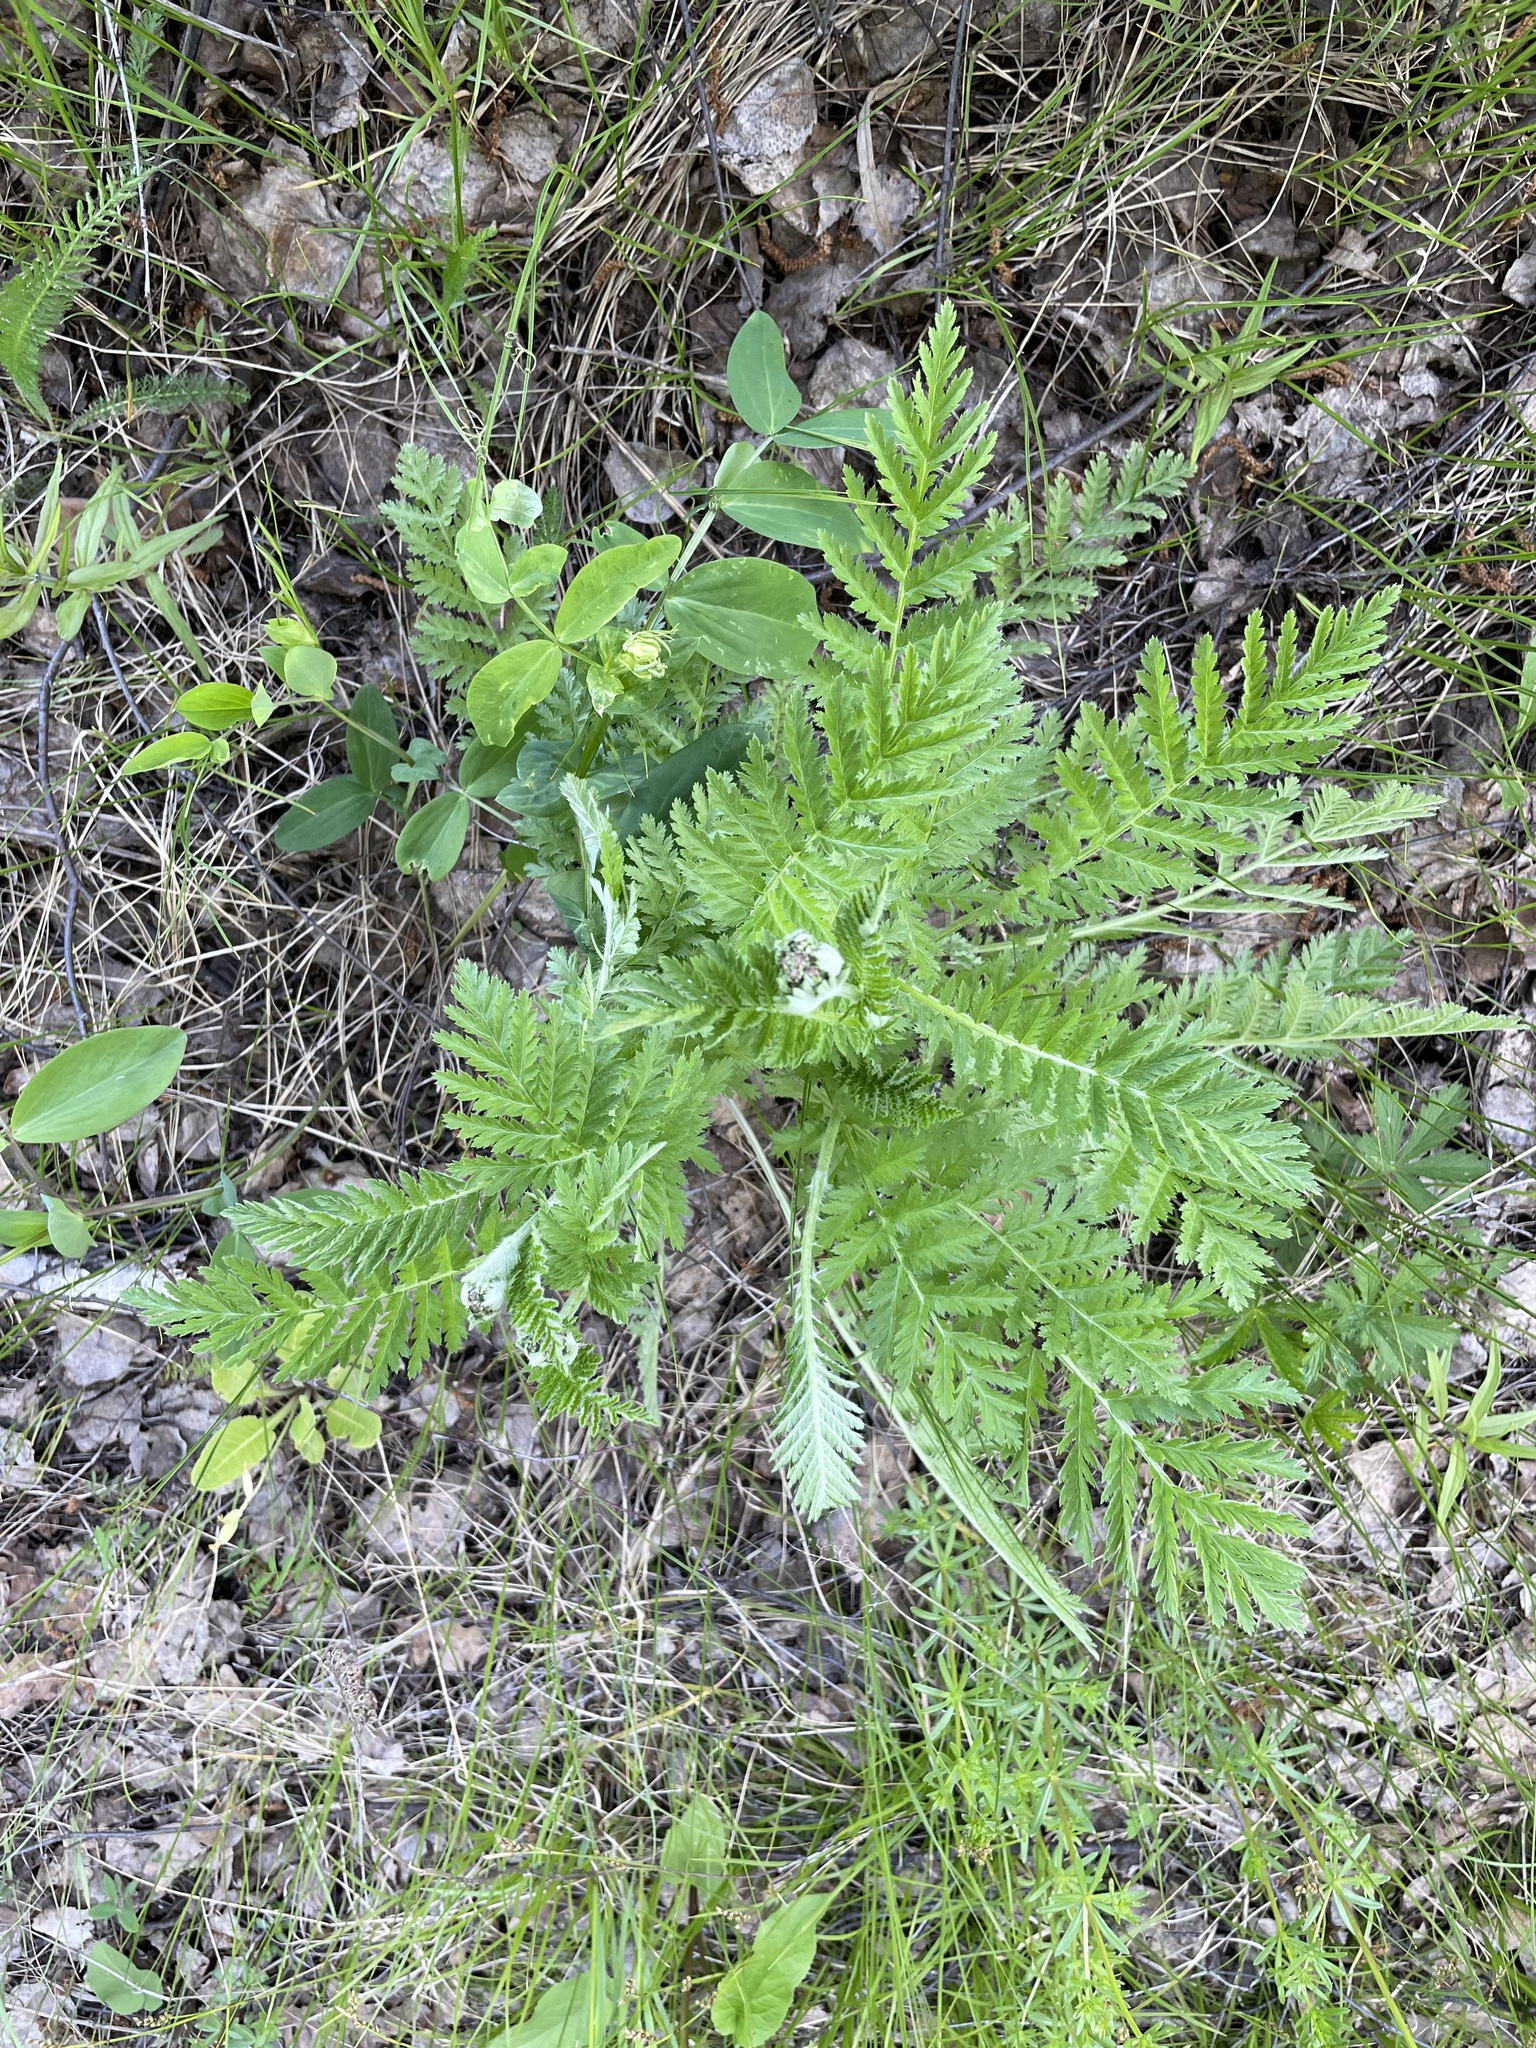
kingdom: Plantae
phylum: Tracheophyta
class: Magnoliopsida
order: Asterales
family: Asteraceae
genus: Tanacetum
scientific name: Tanacetum vulgare
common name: Common tansy
